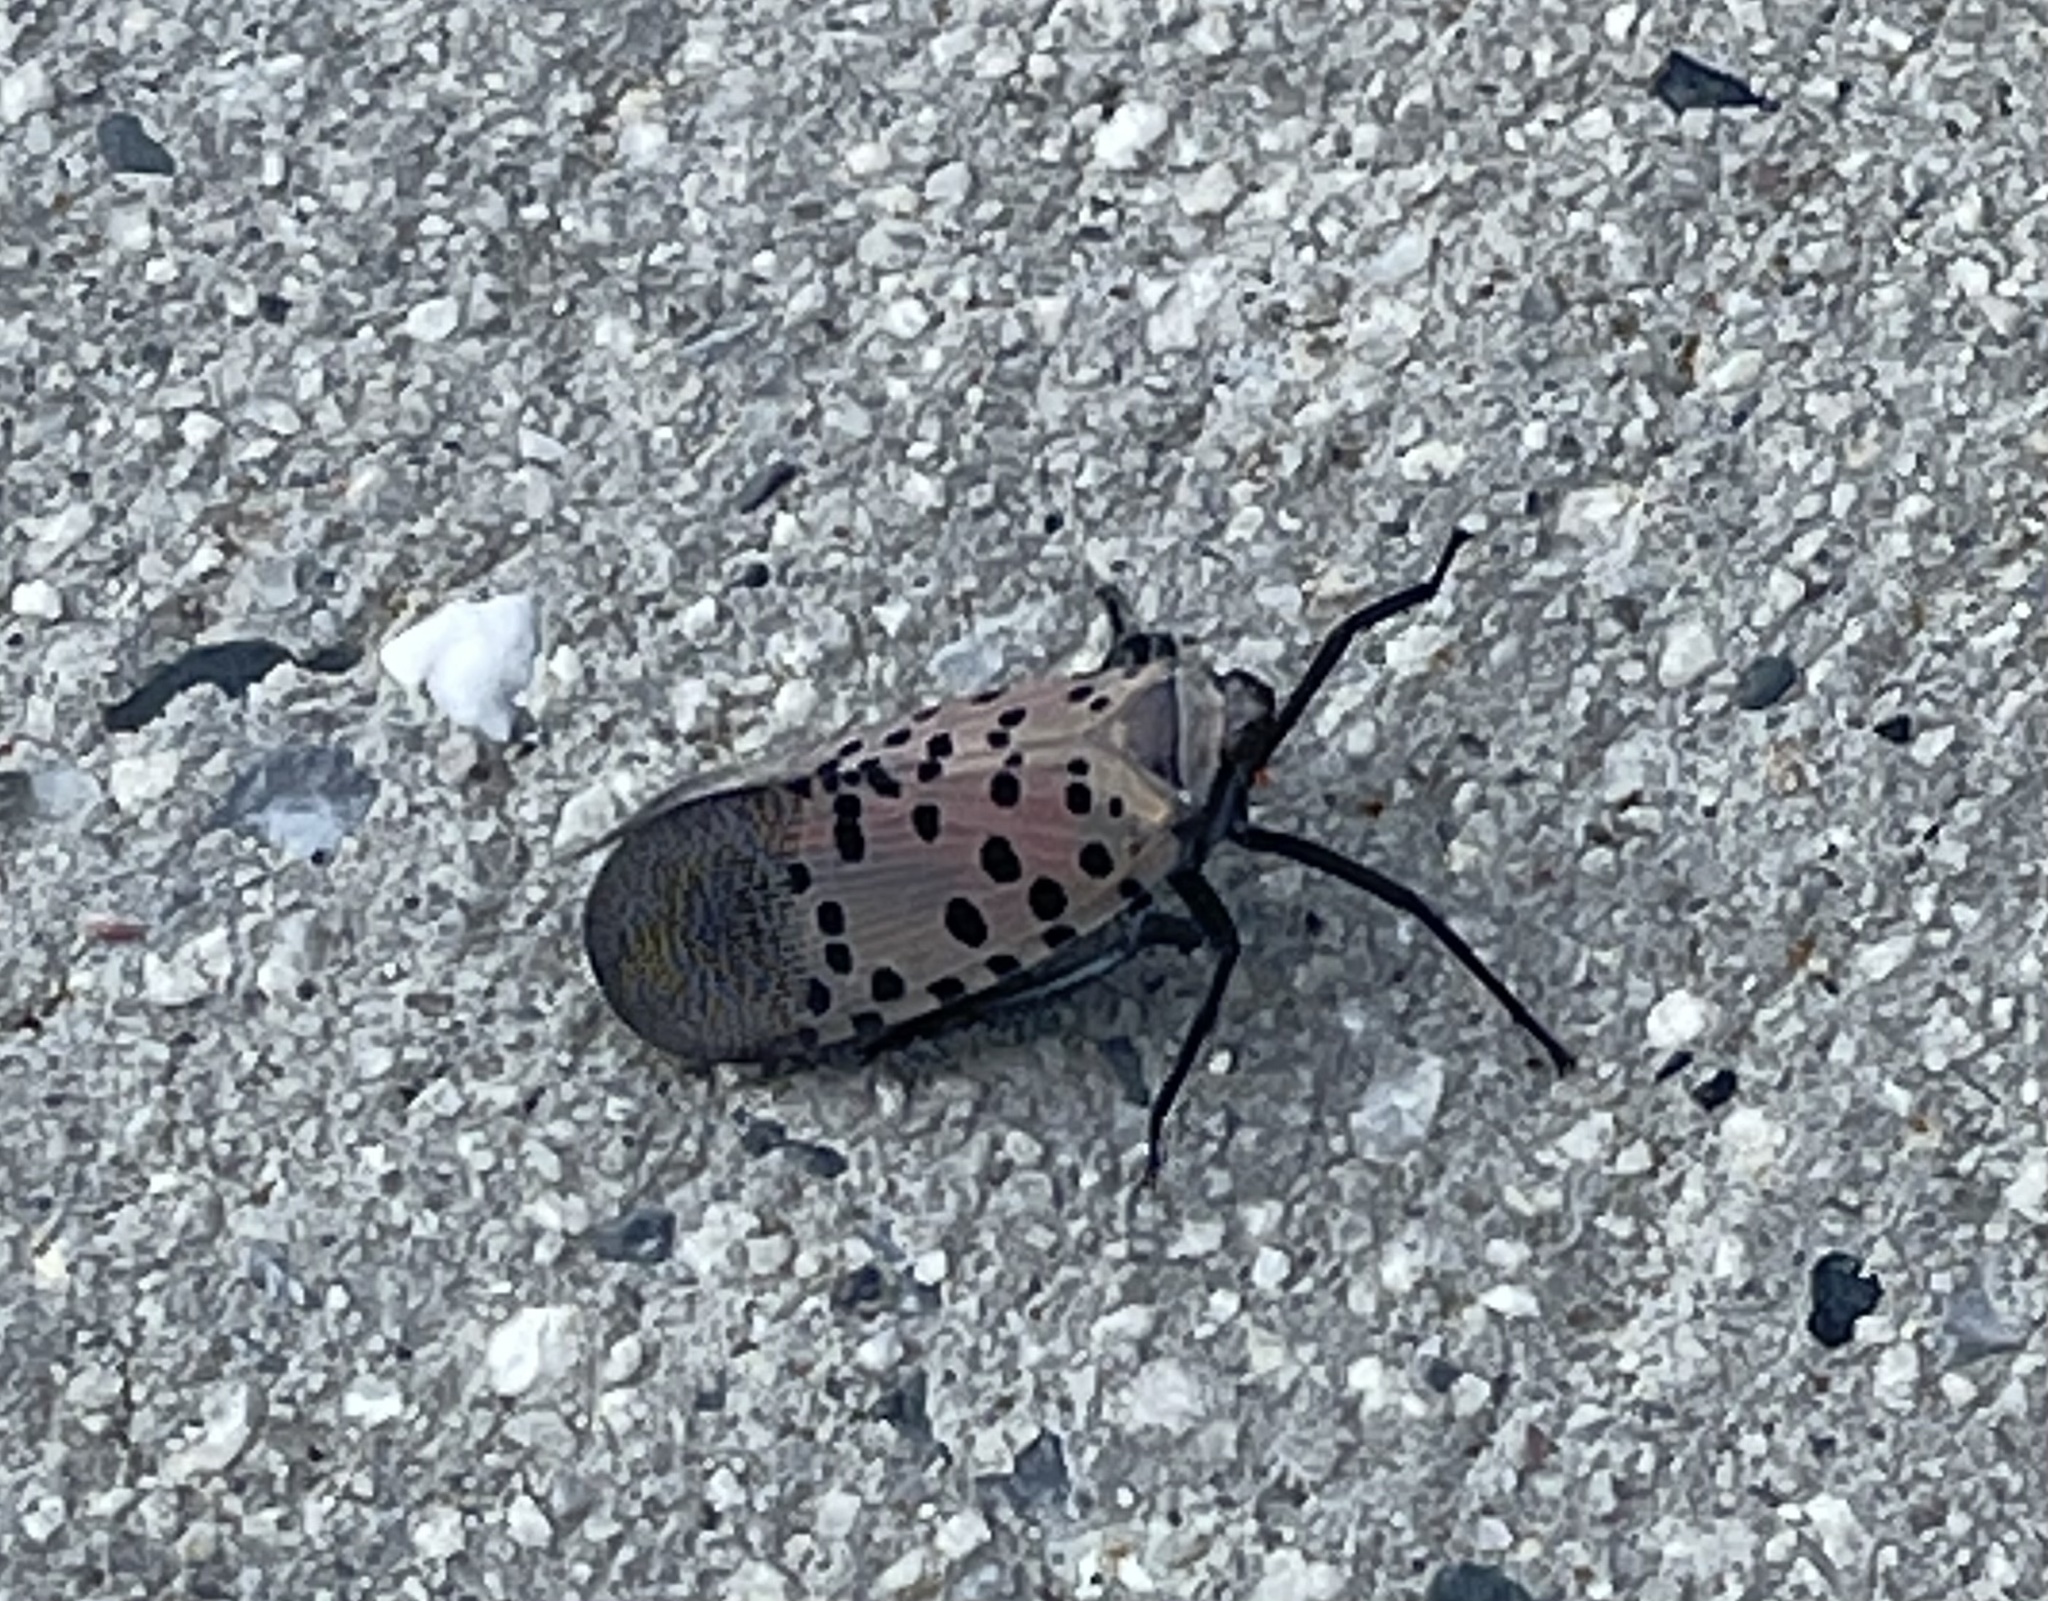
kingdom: Animalia
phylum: Arthropoda
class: Insecta
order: Hemiptera
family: Fulgoridae
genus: Lycorma
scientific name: Lycorma delicatula
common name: Spotted lanternfly
